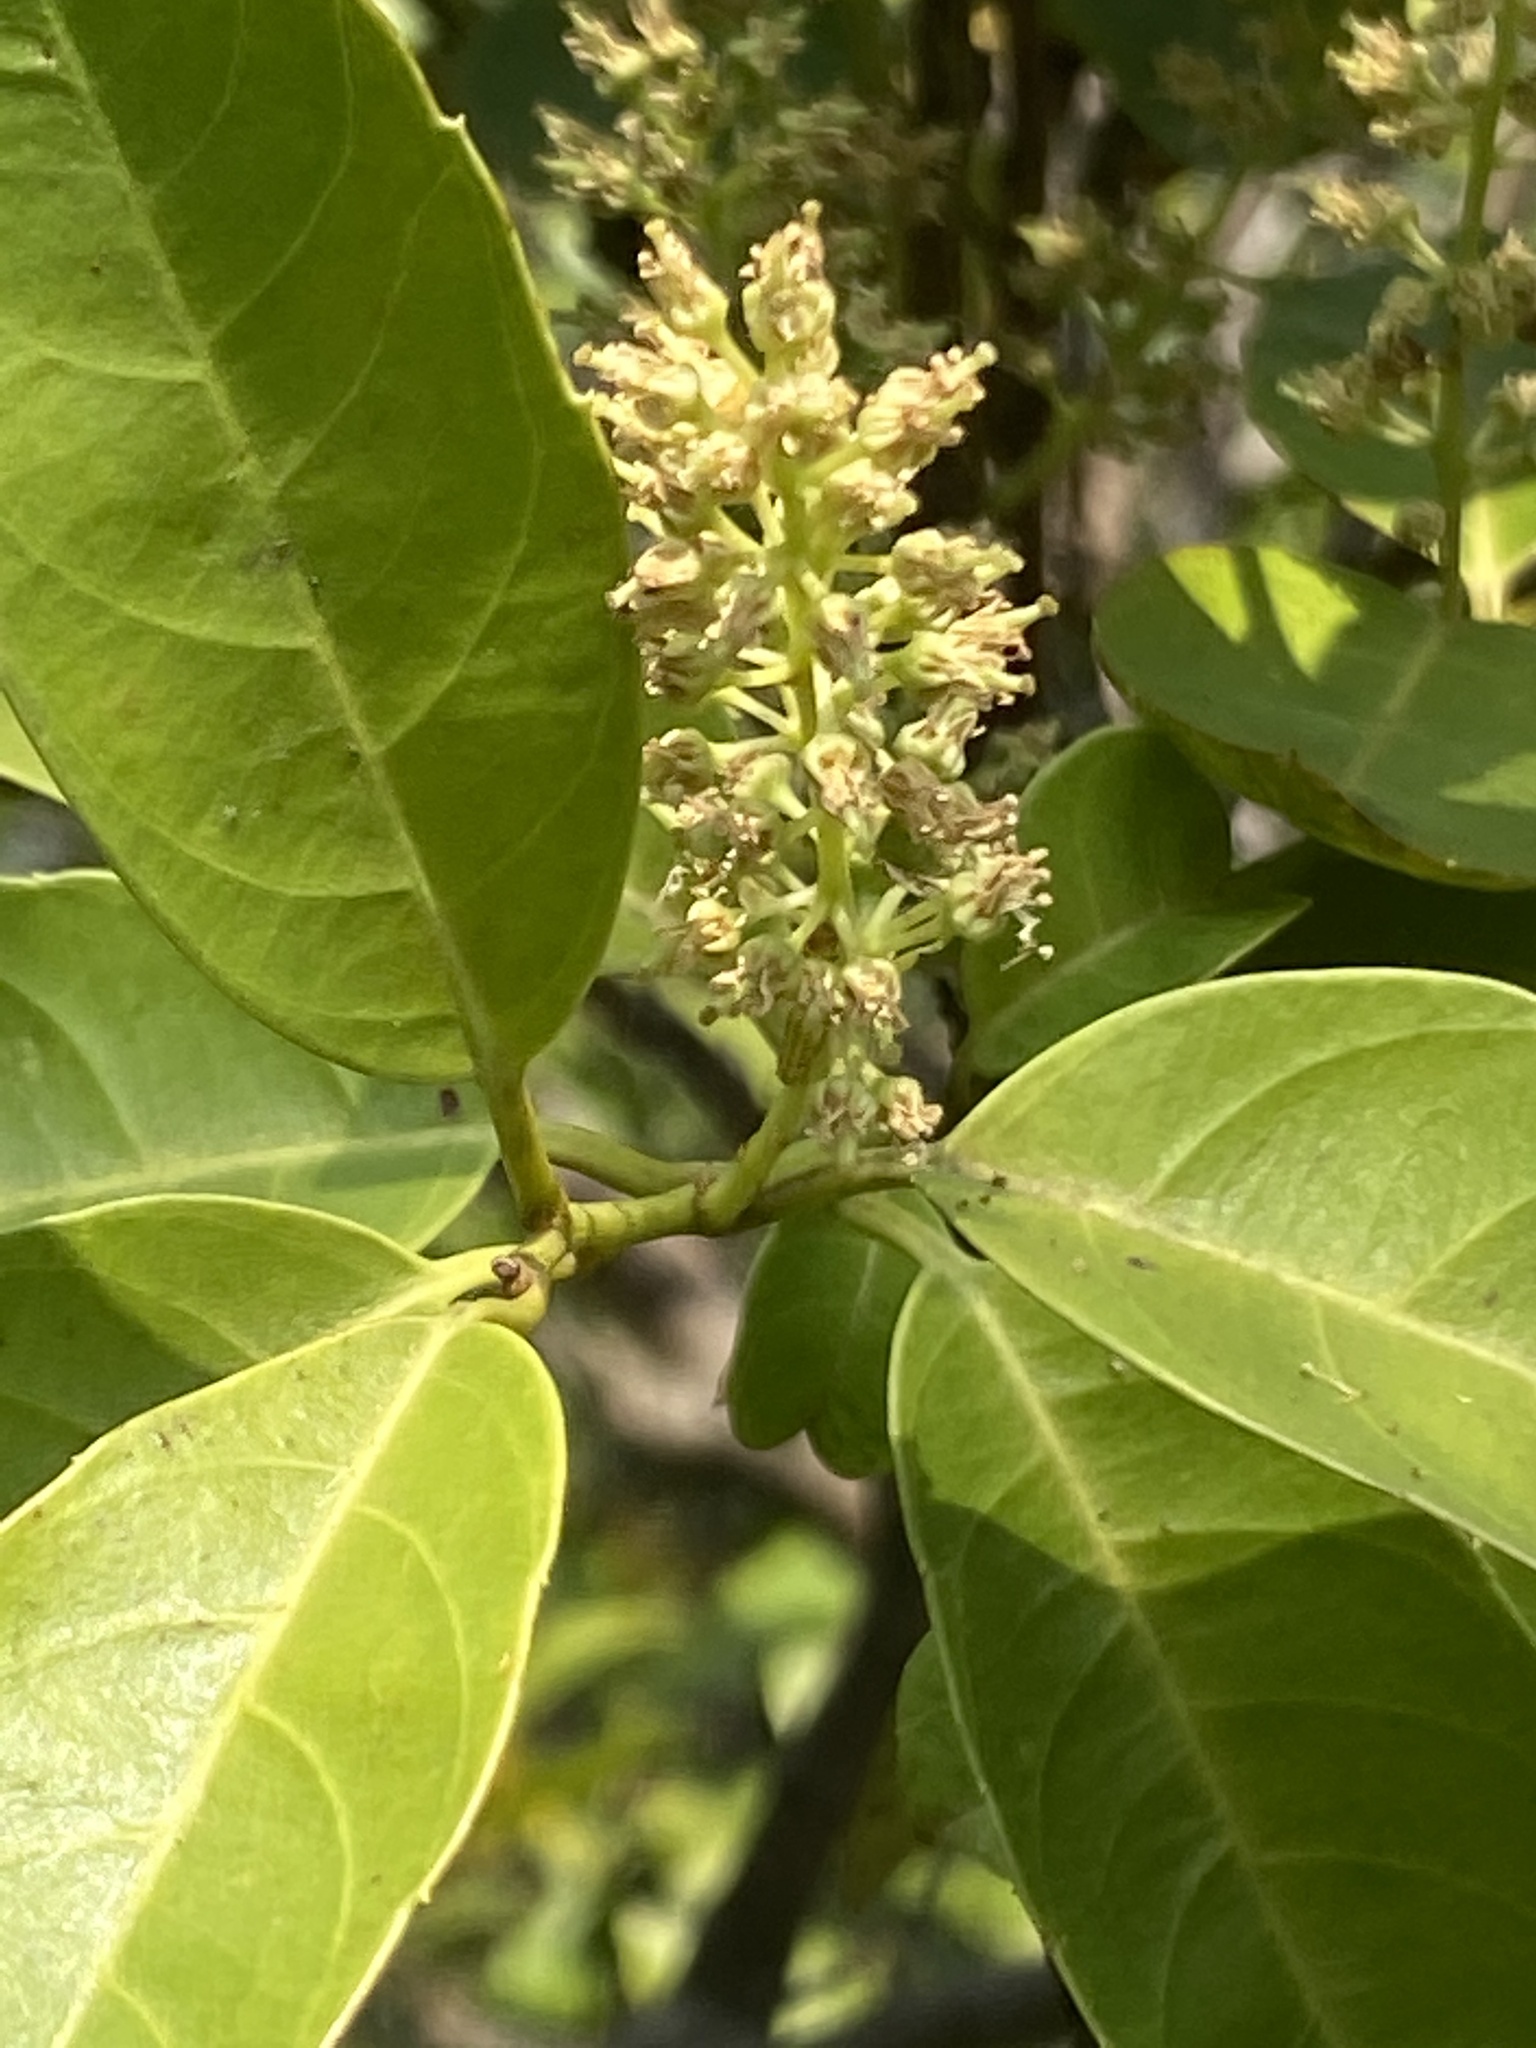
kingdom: Plantae
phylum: Tracheophyta
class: Magnoliopsida
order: Saxifragales
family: Iteaceae
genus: Itea
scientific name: Itea oldhamii
